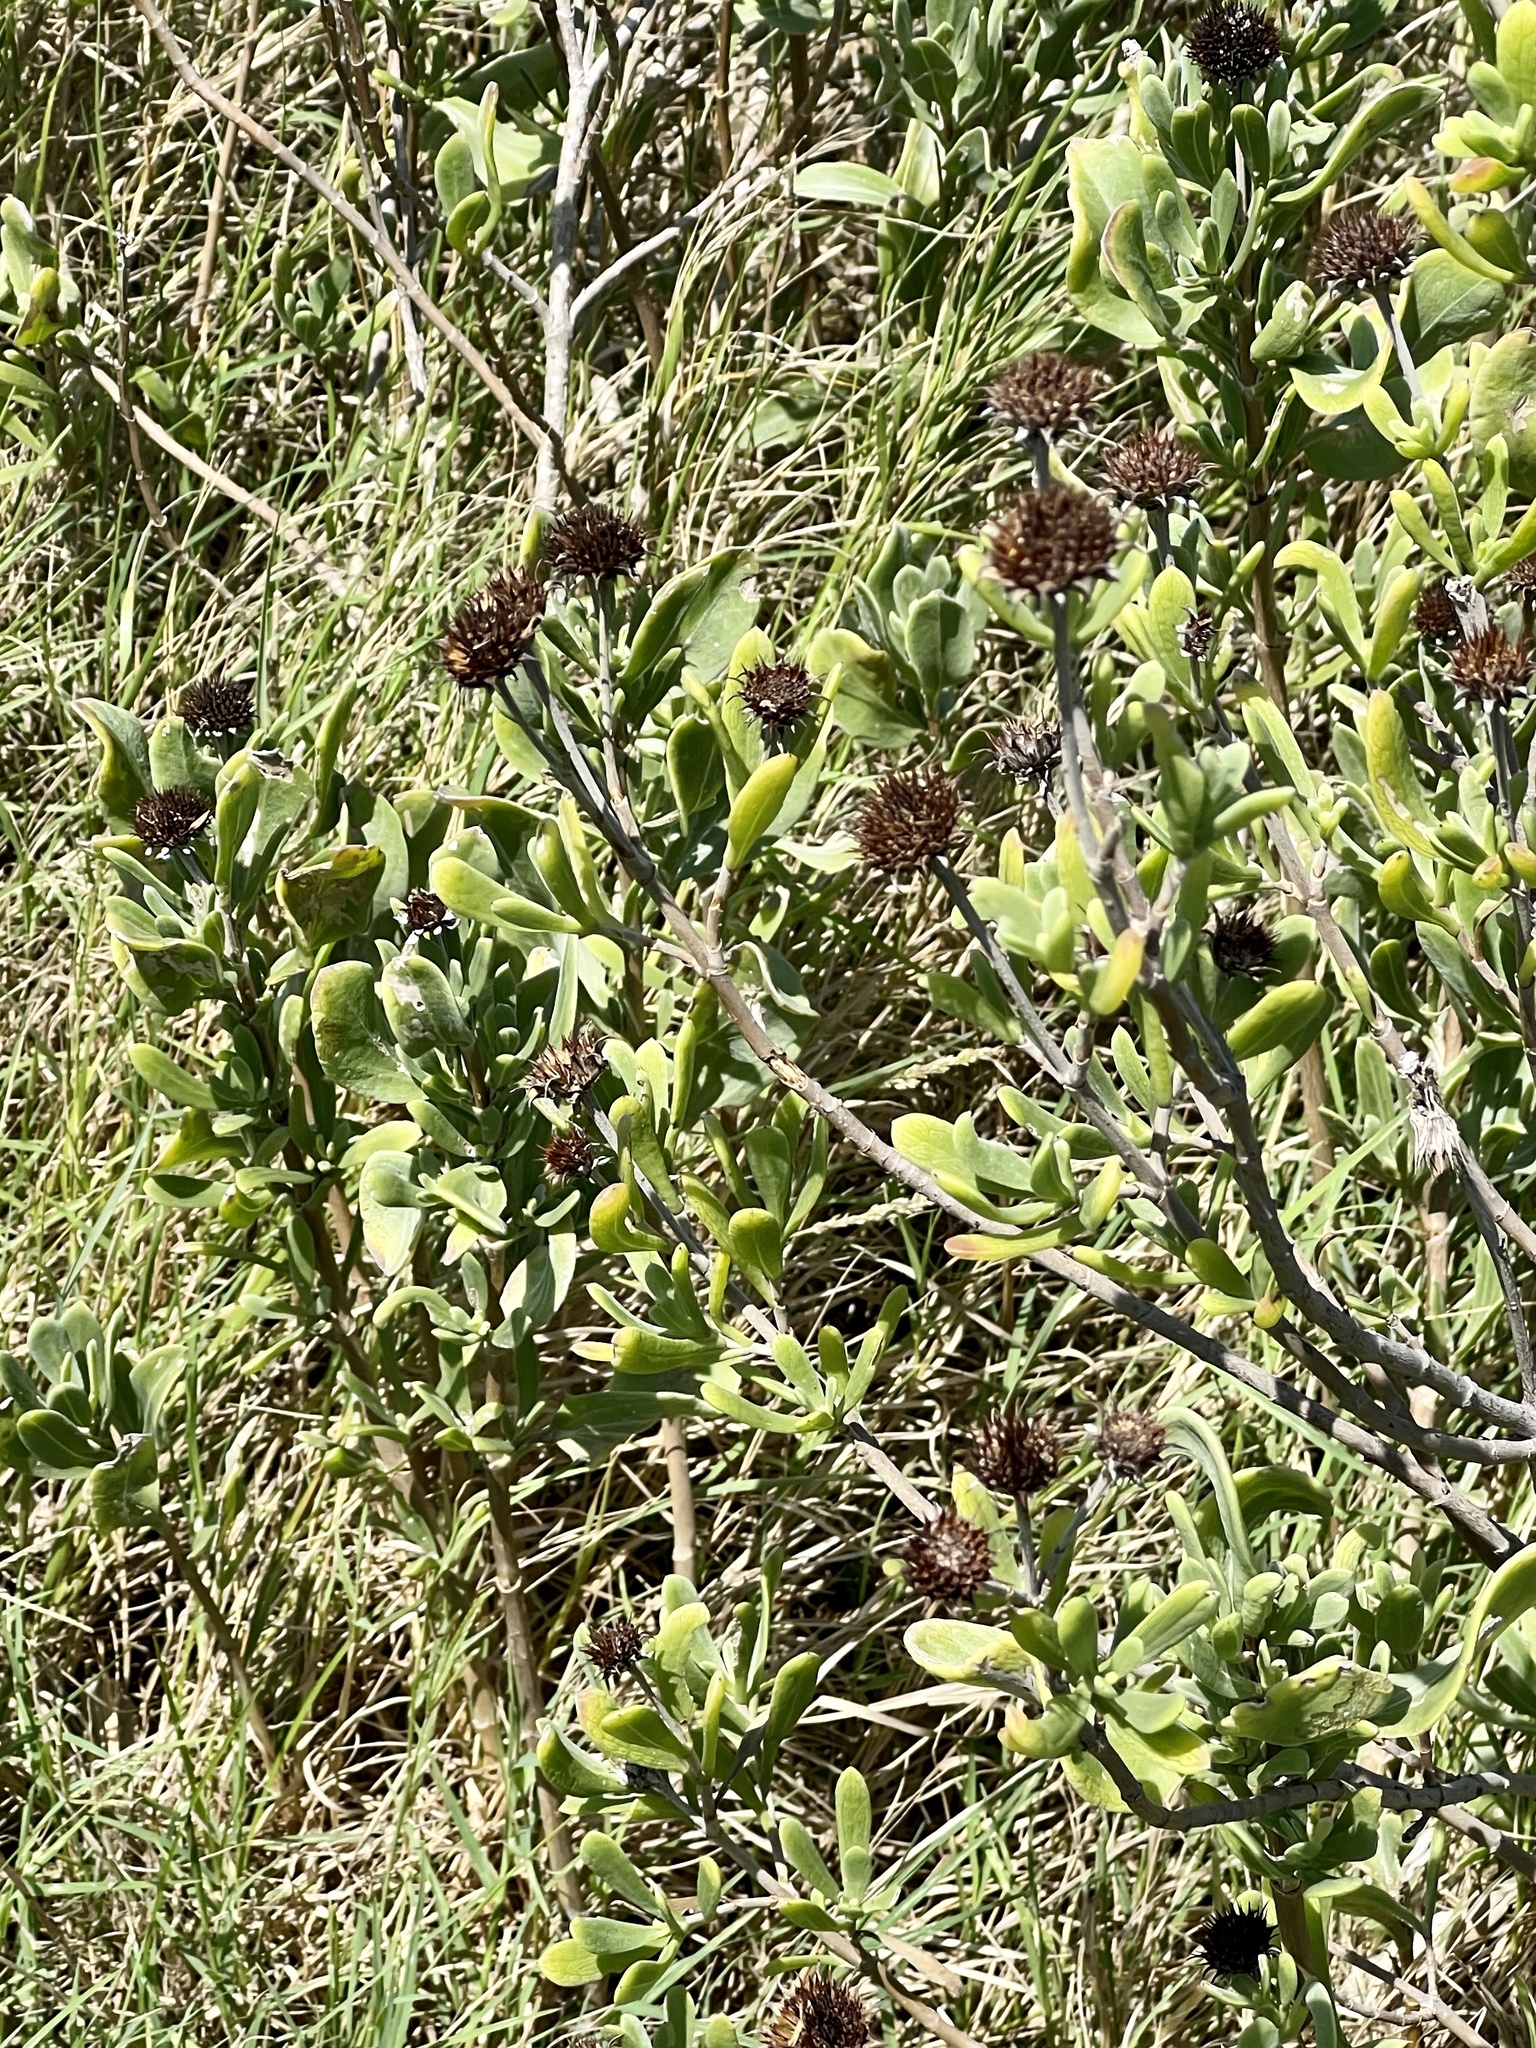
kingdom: Plantae
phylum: Tracheophyta
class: Magnoliopsida
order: Asterales
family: Asteraceae
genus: Borrichia
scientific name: Borrichia frutescens
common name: Sea oxeye
